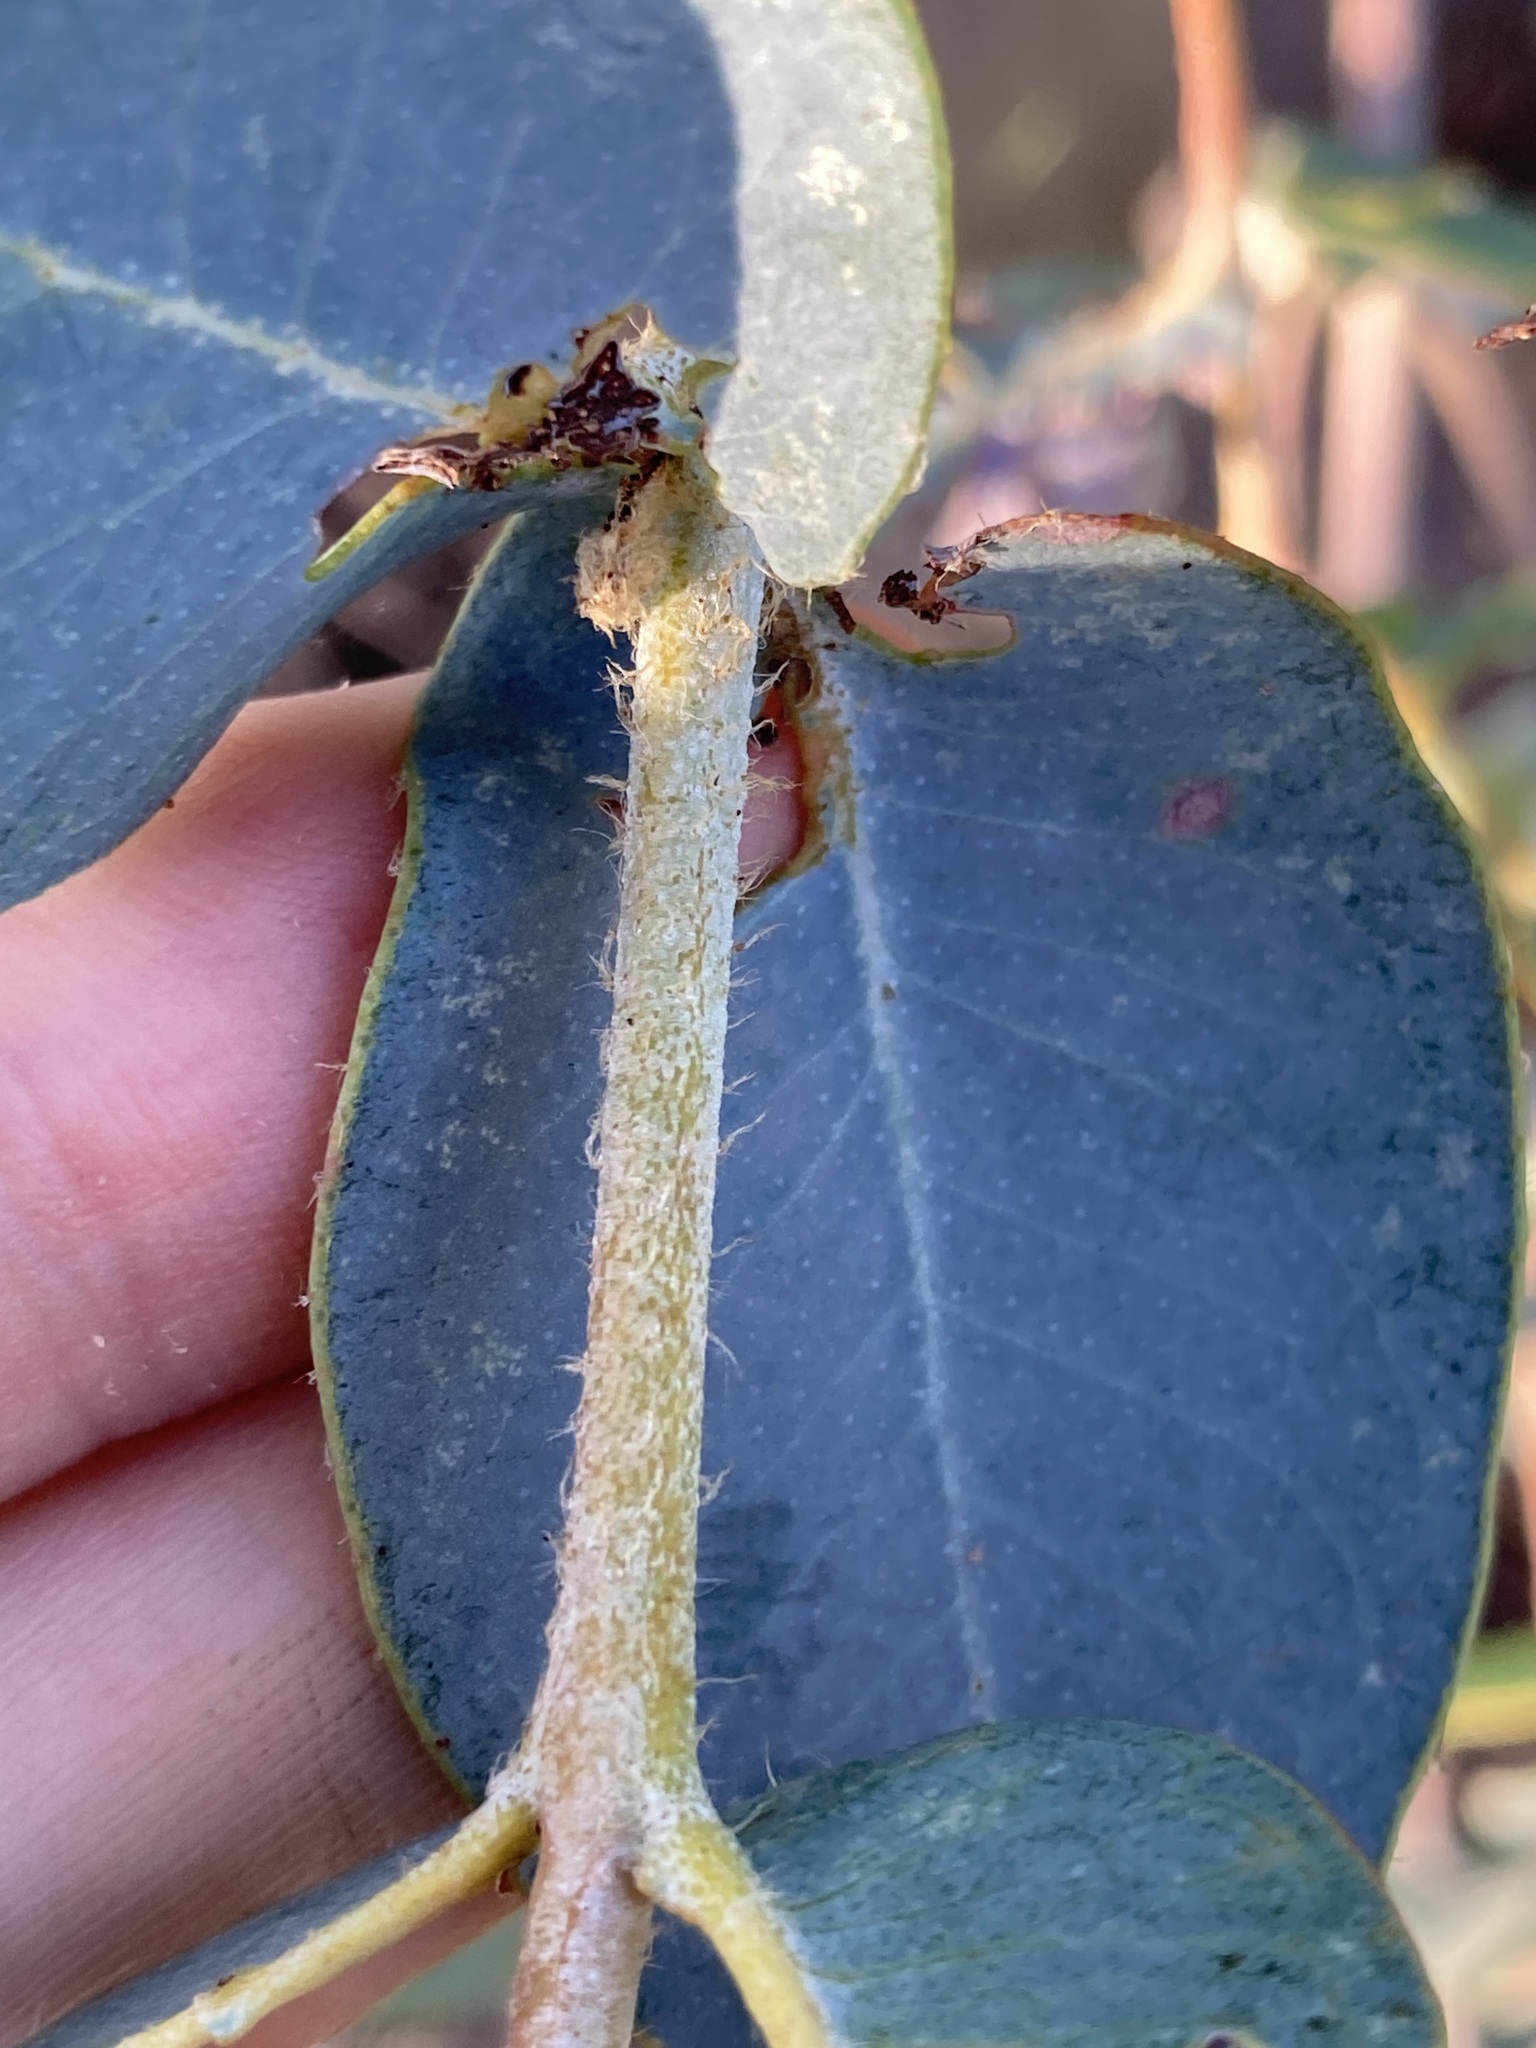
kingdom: Plantae
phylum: Tracheophyta
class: Magnoliopsida
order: Myrtales
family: Myrtaceae
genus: Eucalyptus
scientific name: Eucalyptus eudesmioides
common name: Desert gum
